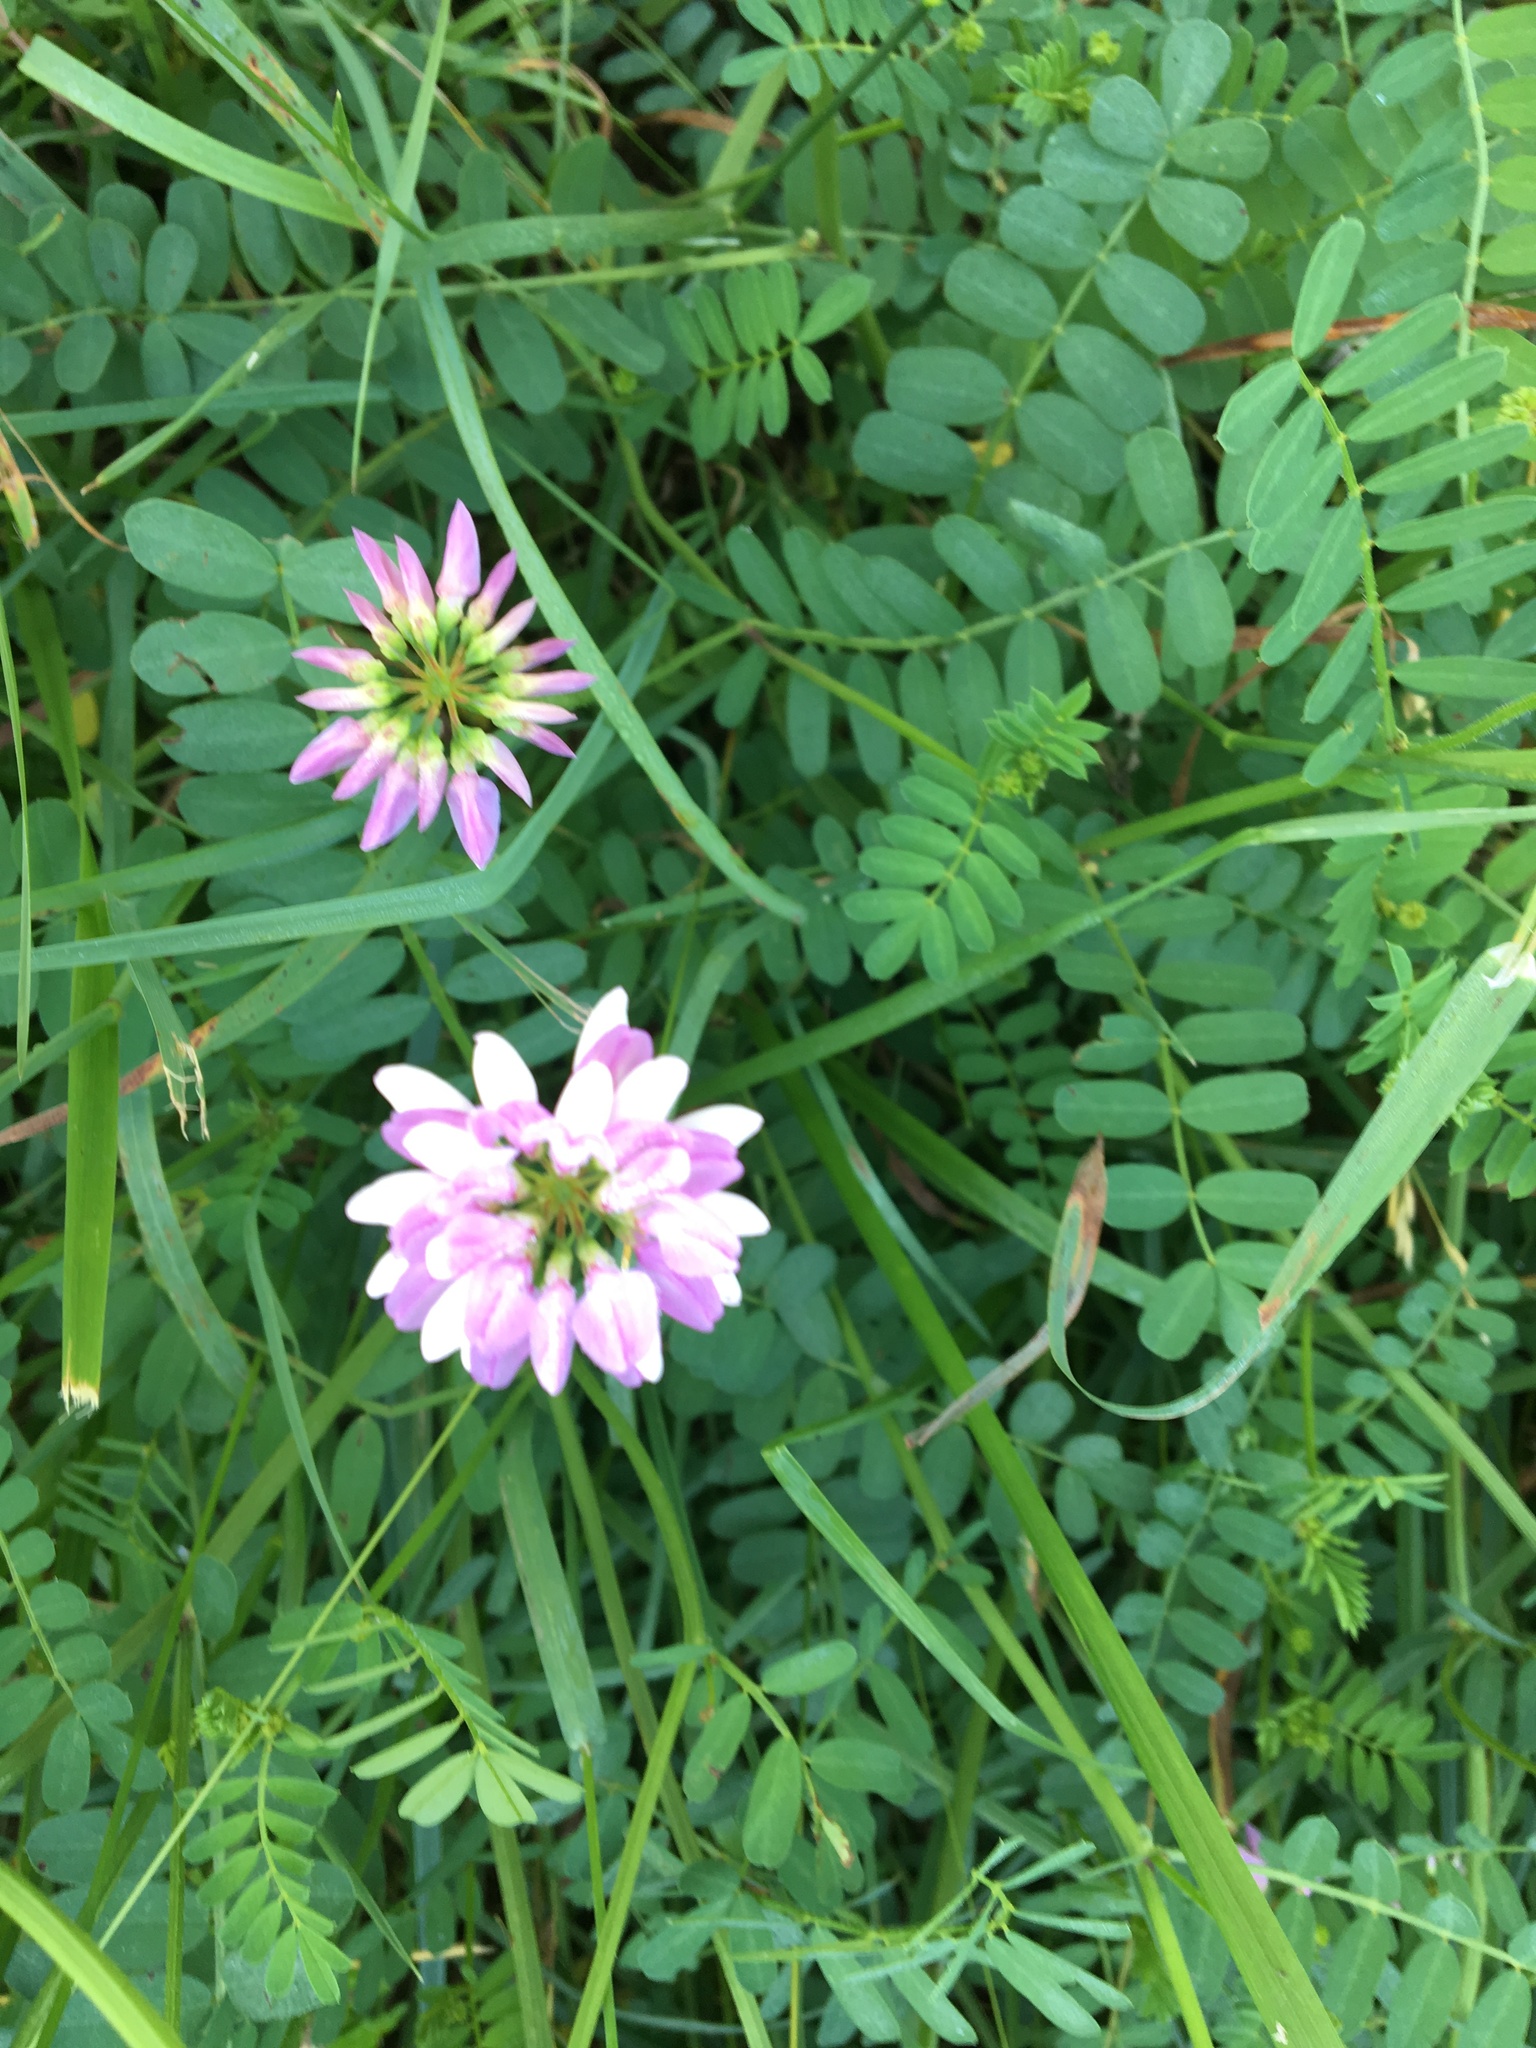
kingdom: Plantae
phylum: Tracheophyta
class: Magnoliopsida
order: Fabales
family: Fabaceae
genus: Coronilla
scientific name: Coronilla varia
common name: Crownvetch
